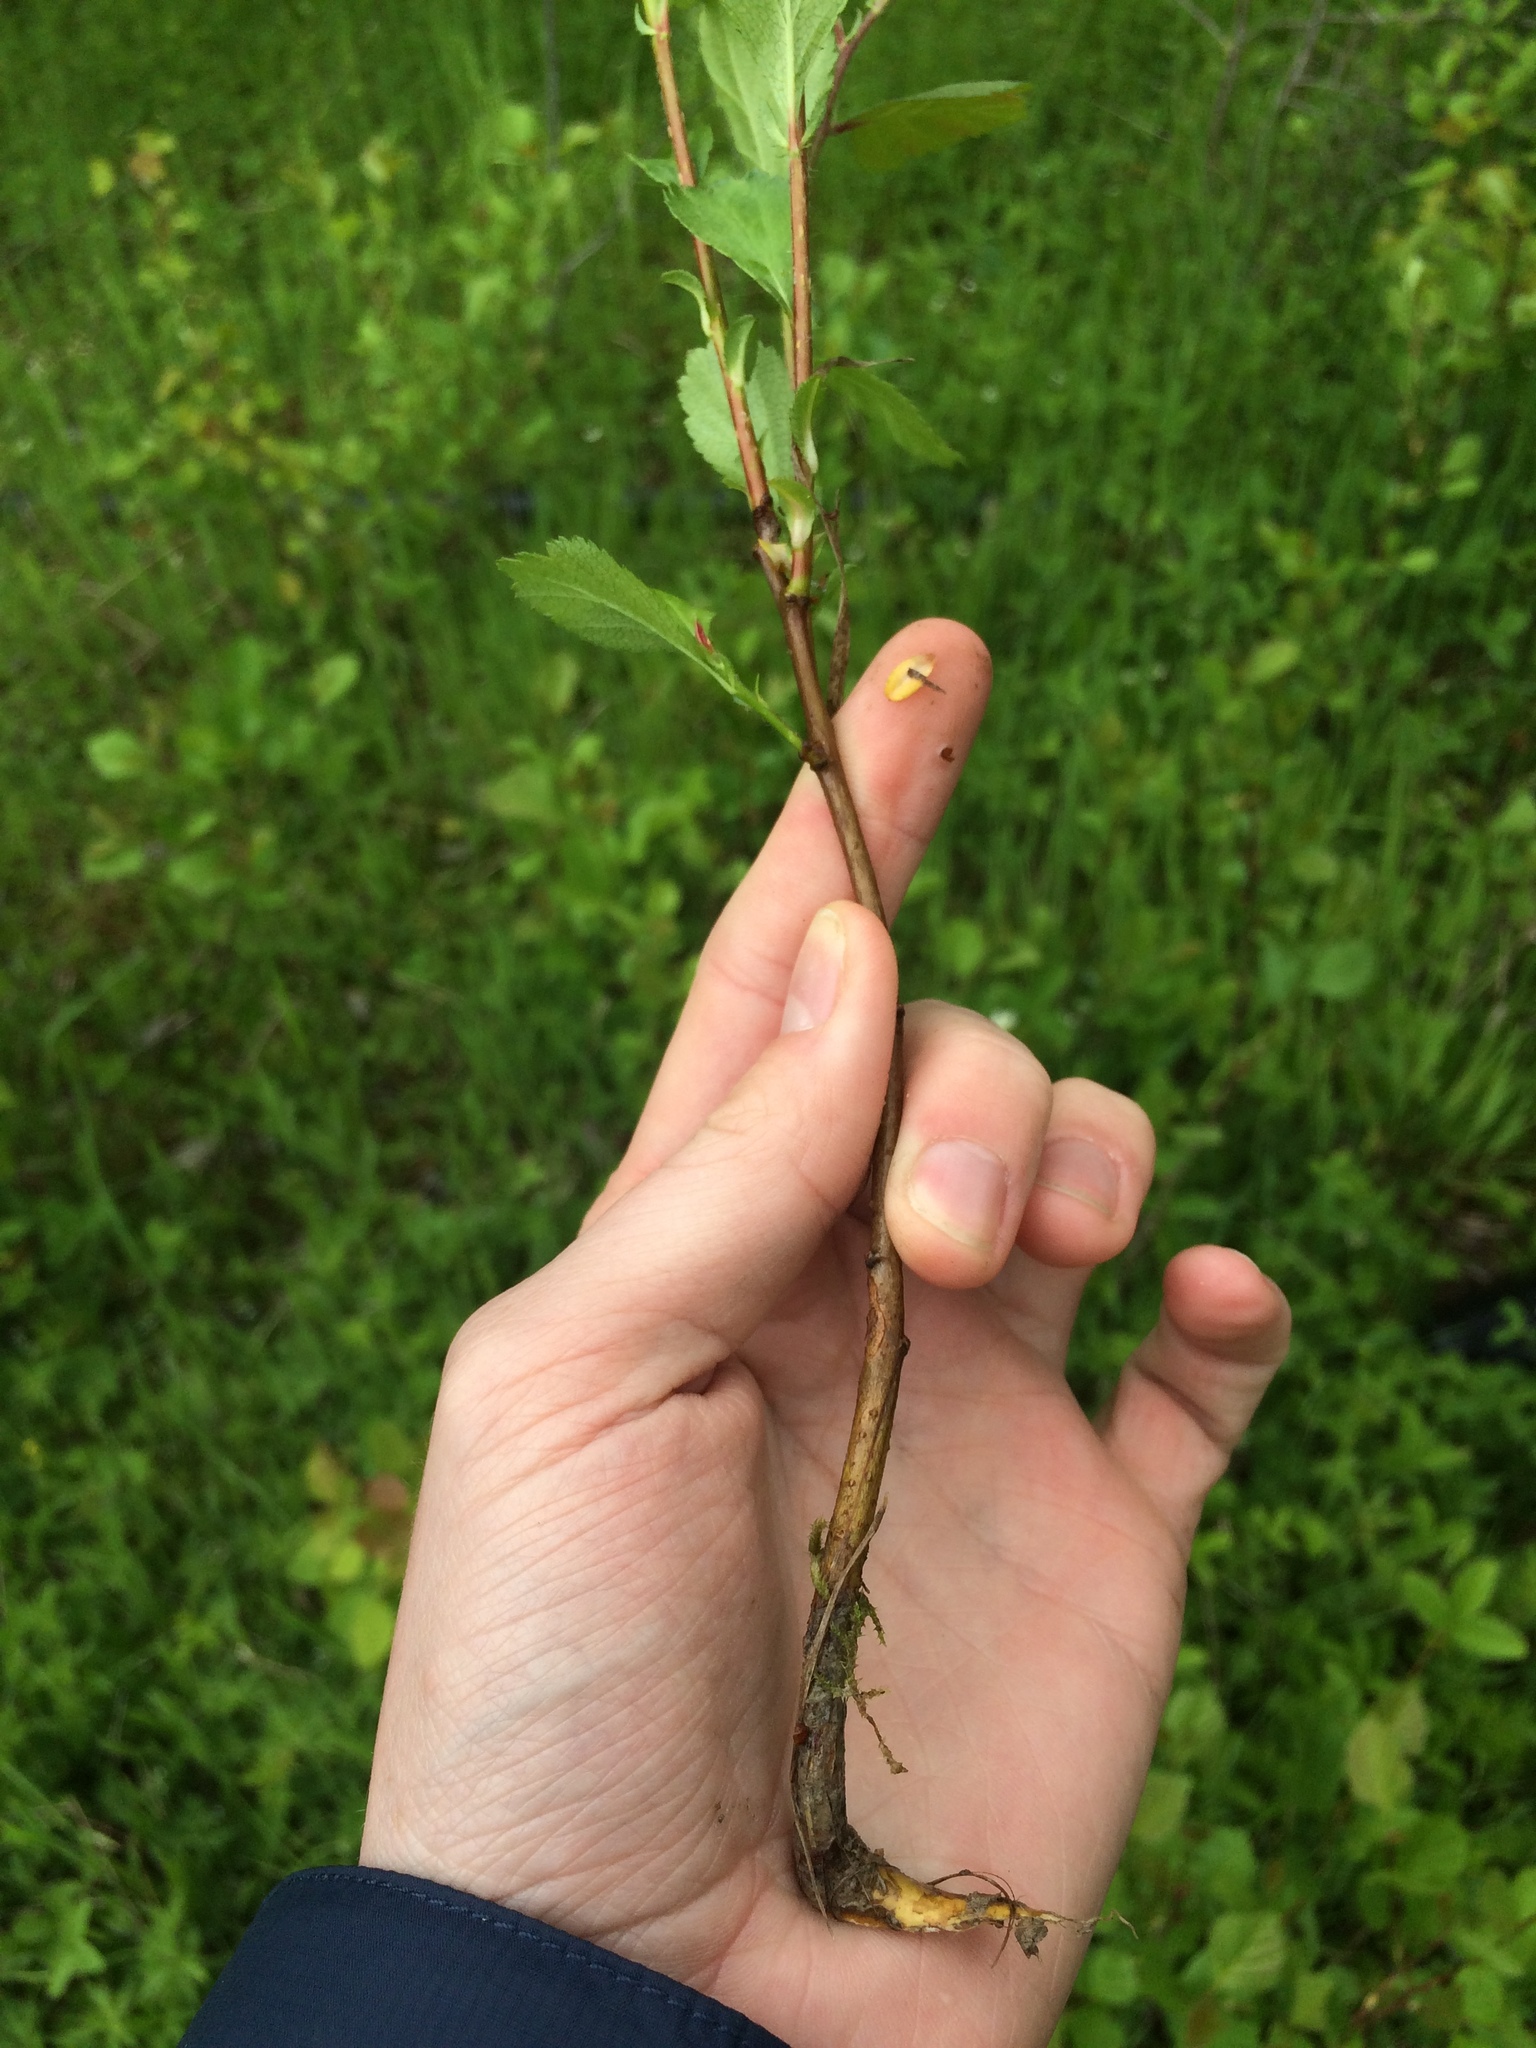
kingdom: Plantae
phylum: Tracheophyta
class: Magnoliopsida
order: Rosales
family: Rosaceae
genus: Crataegus
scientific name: Crataegus chrysocarpa
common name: Fire-berry hawthorn
